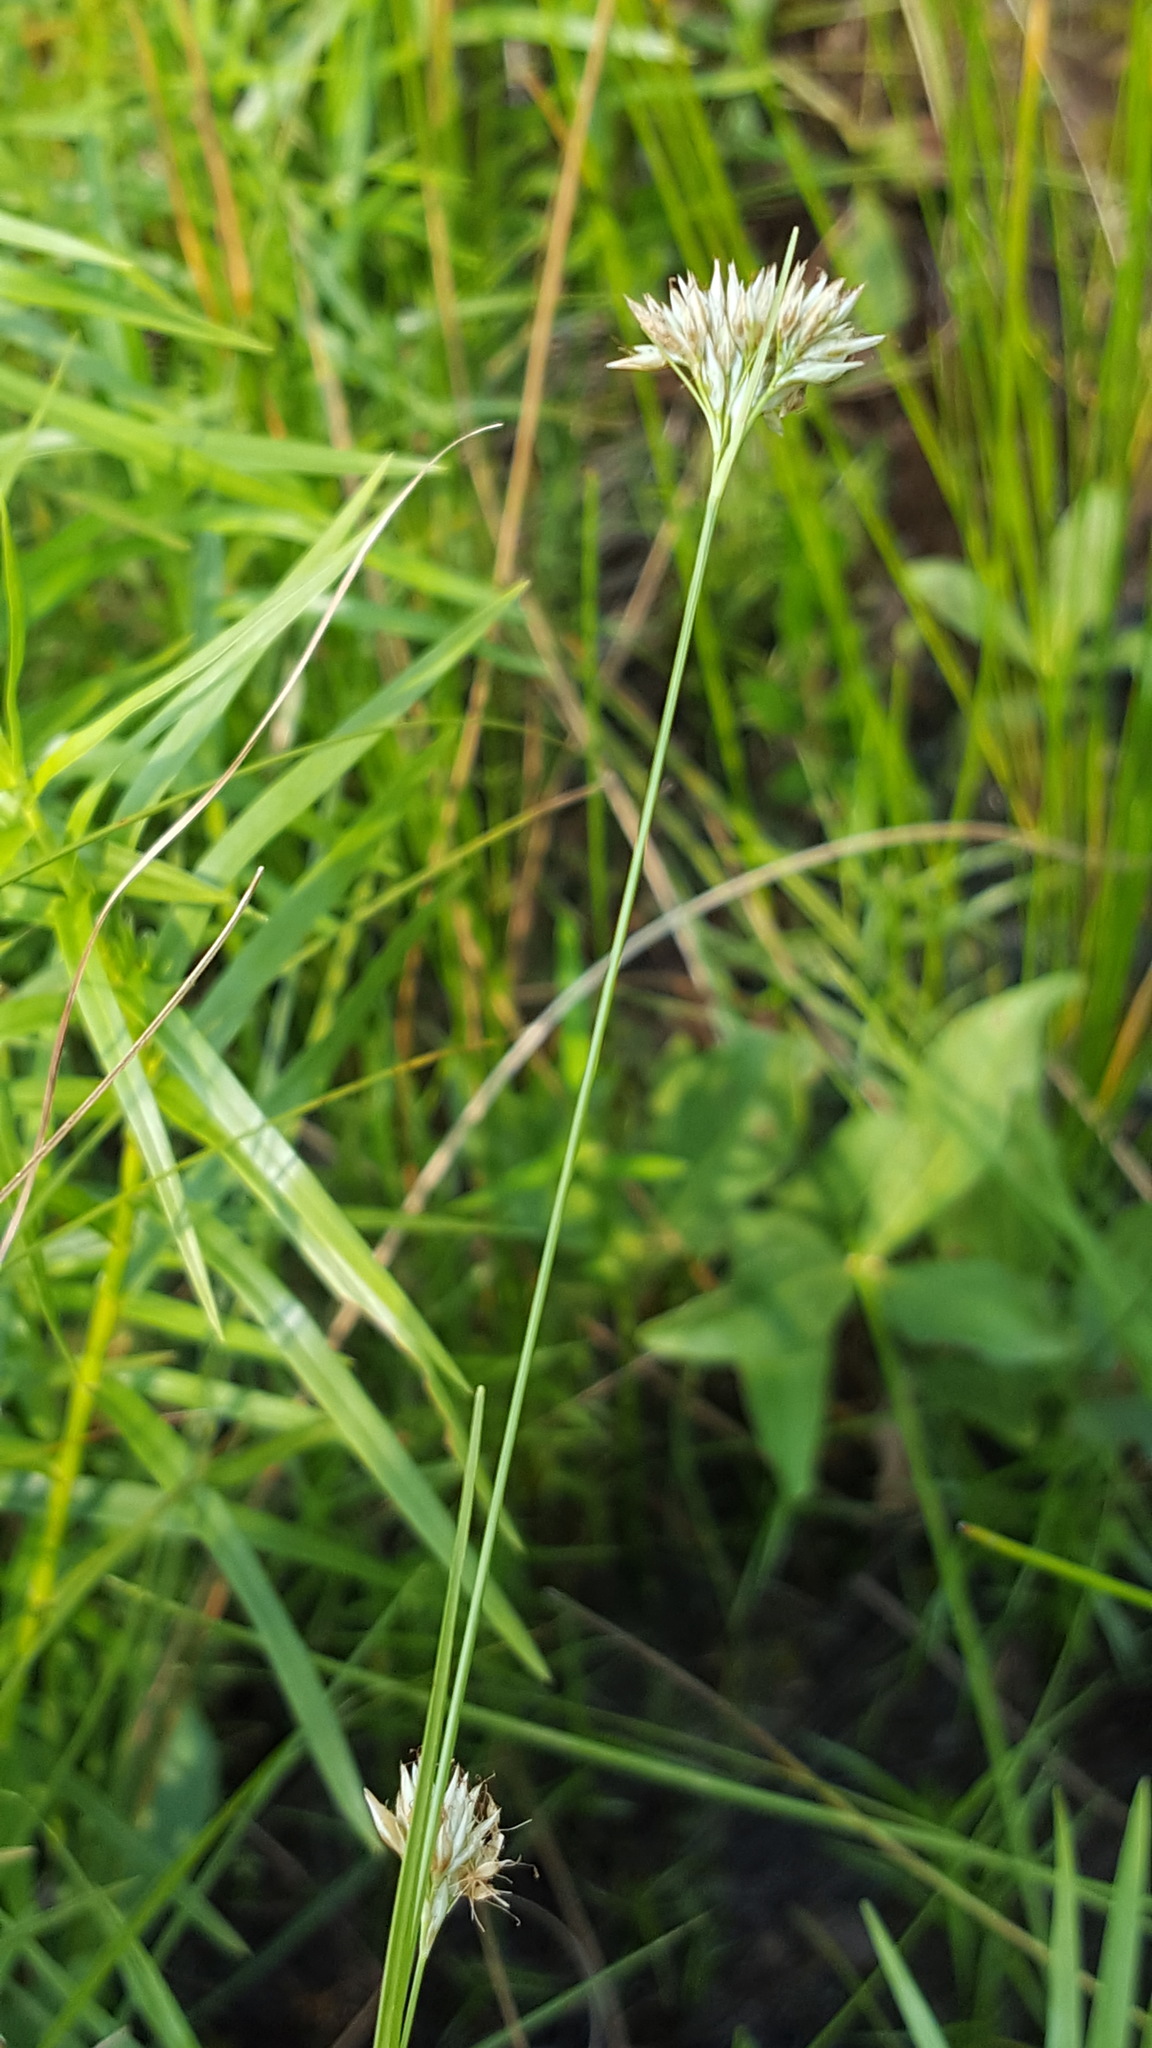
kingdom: Plantae
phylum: Tracheophyta
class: Liliopsida
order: Poales
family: Cyperaceae
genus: Rhynchospora
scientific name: Rhynchospora alba
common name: White beak-sedge
